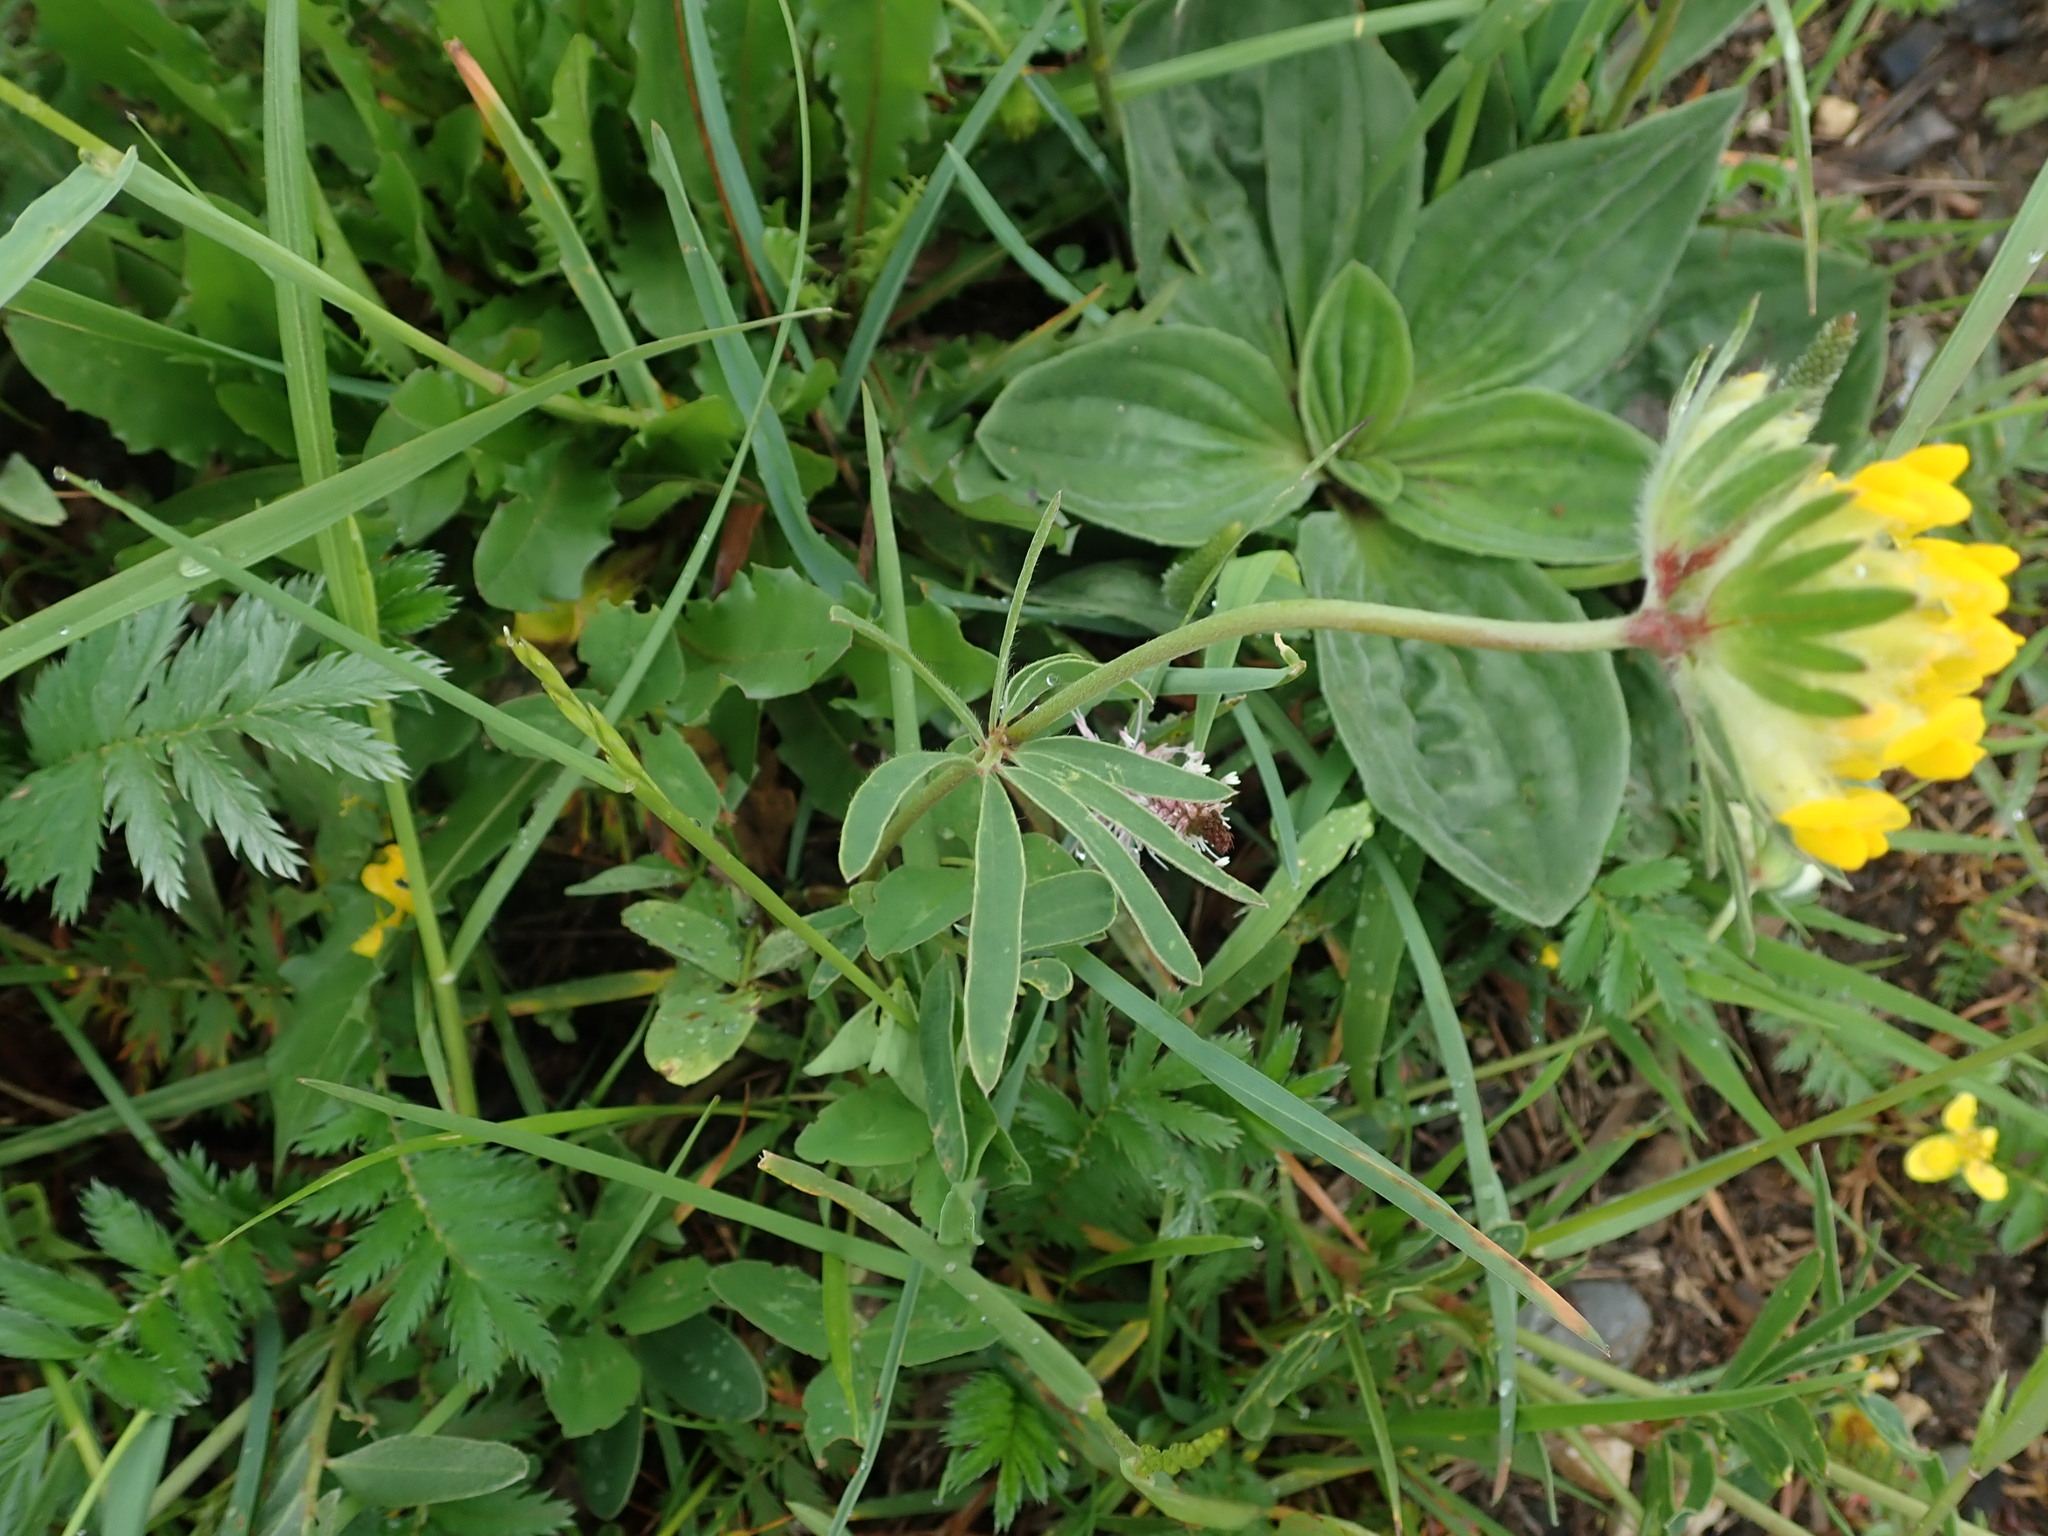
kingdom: Plantae
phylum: Tracheophyta
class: Magnoliopsida
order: Fabales
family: Fabaceae
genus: Anthyllis
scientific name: Anthyllis vulneraria
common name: Kidney vetch
